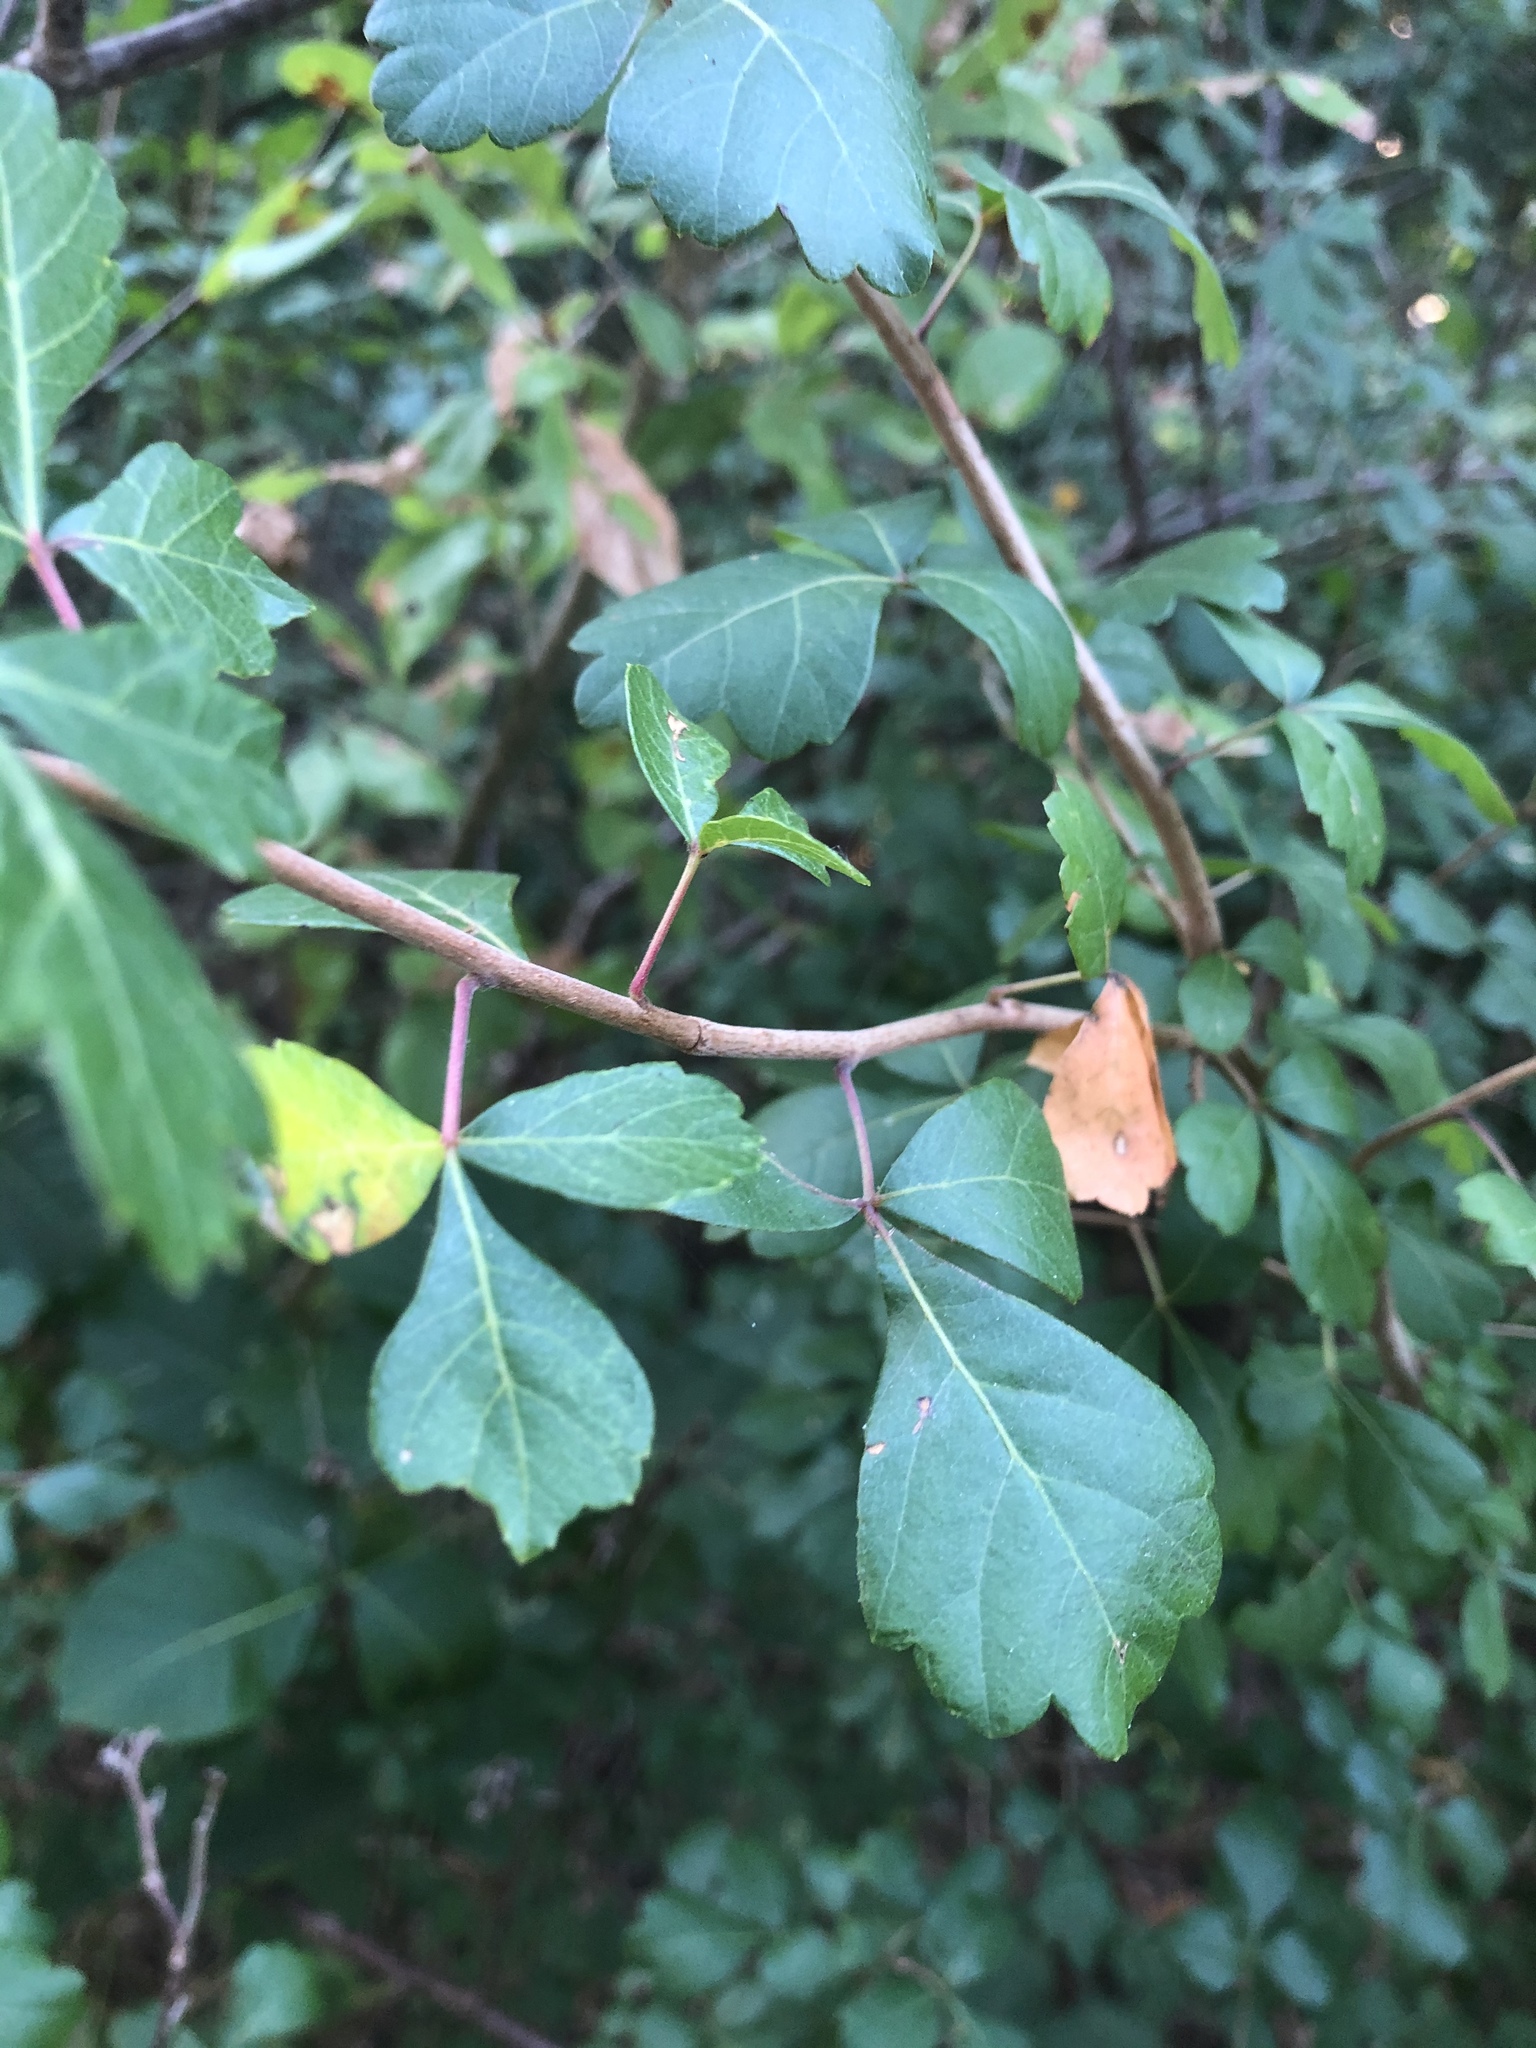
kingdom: Plantae
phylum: Tracheophyta
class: Magnoliopsida
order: Sapindales
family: Anacardiaceae
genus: Rhus
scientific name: Rhus aromatica
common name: Aromatic sumac
